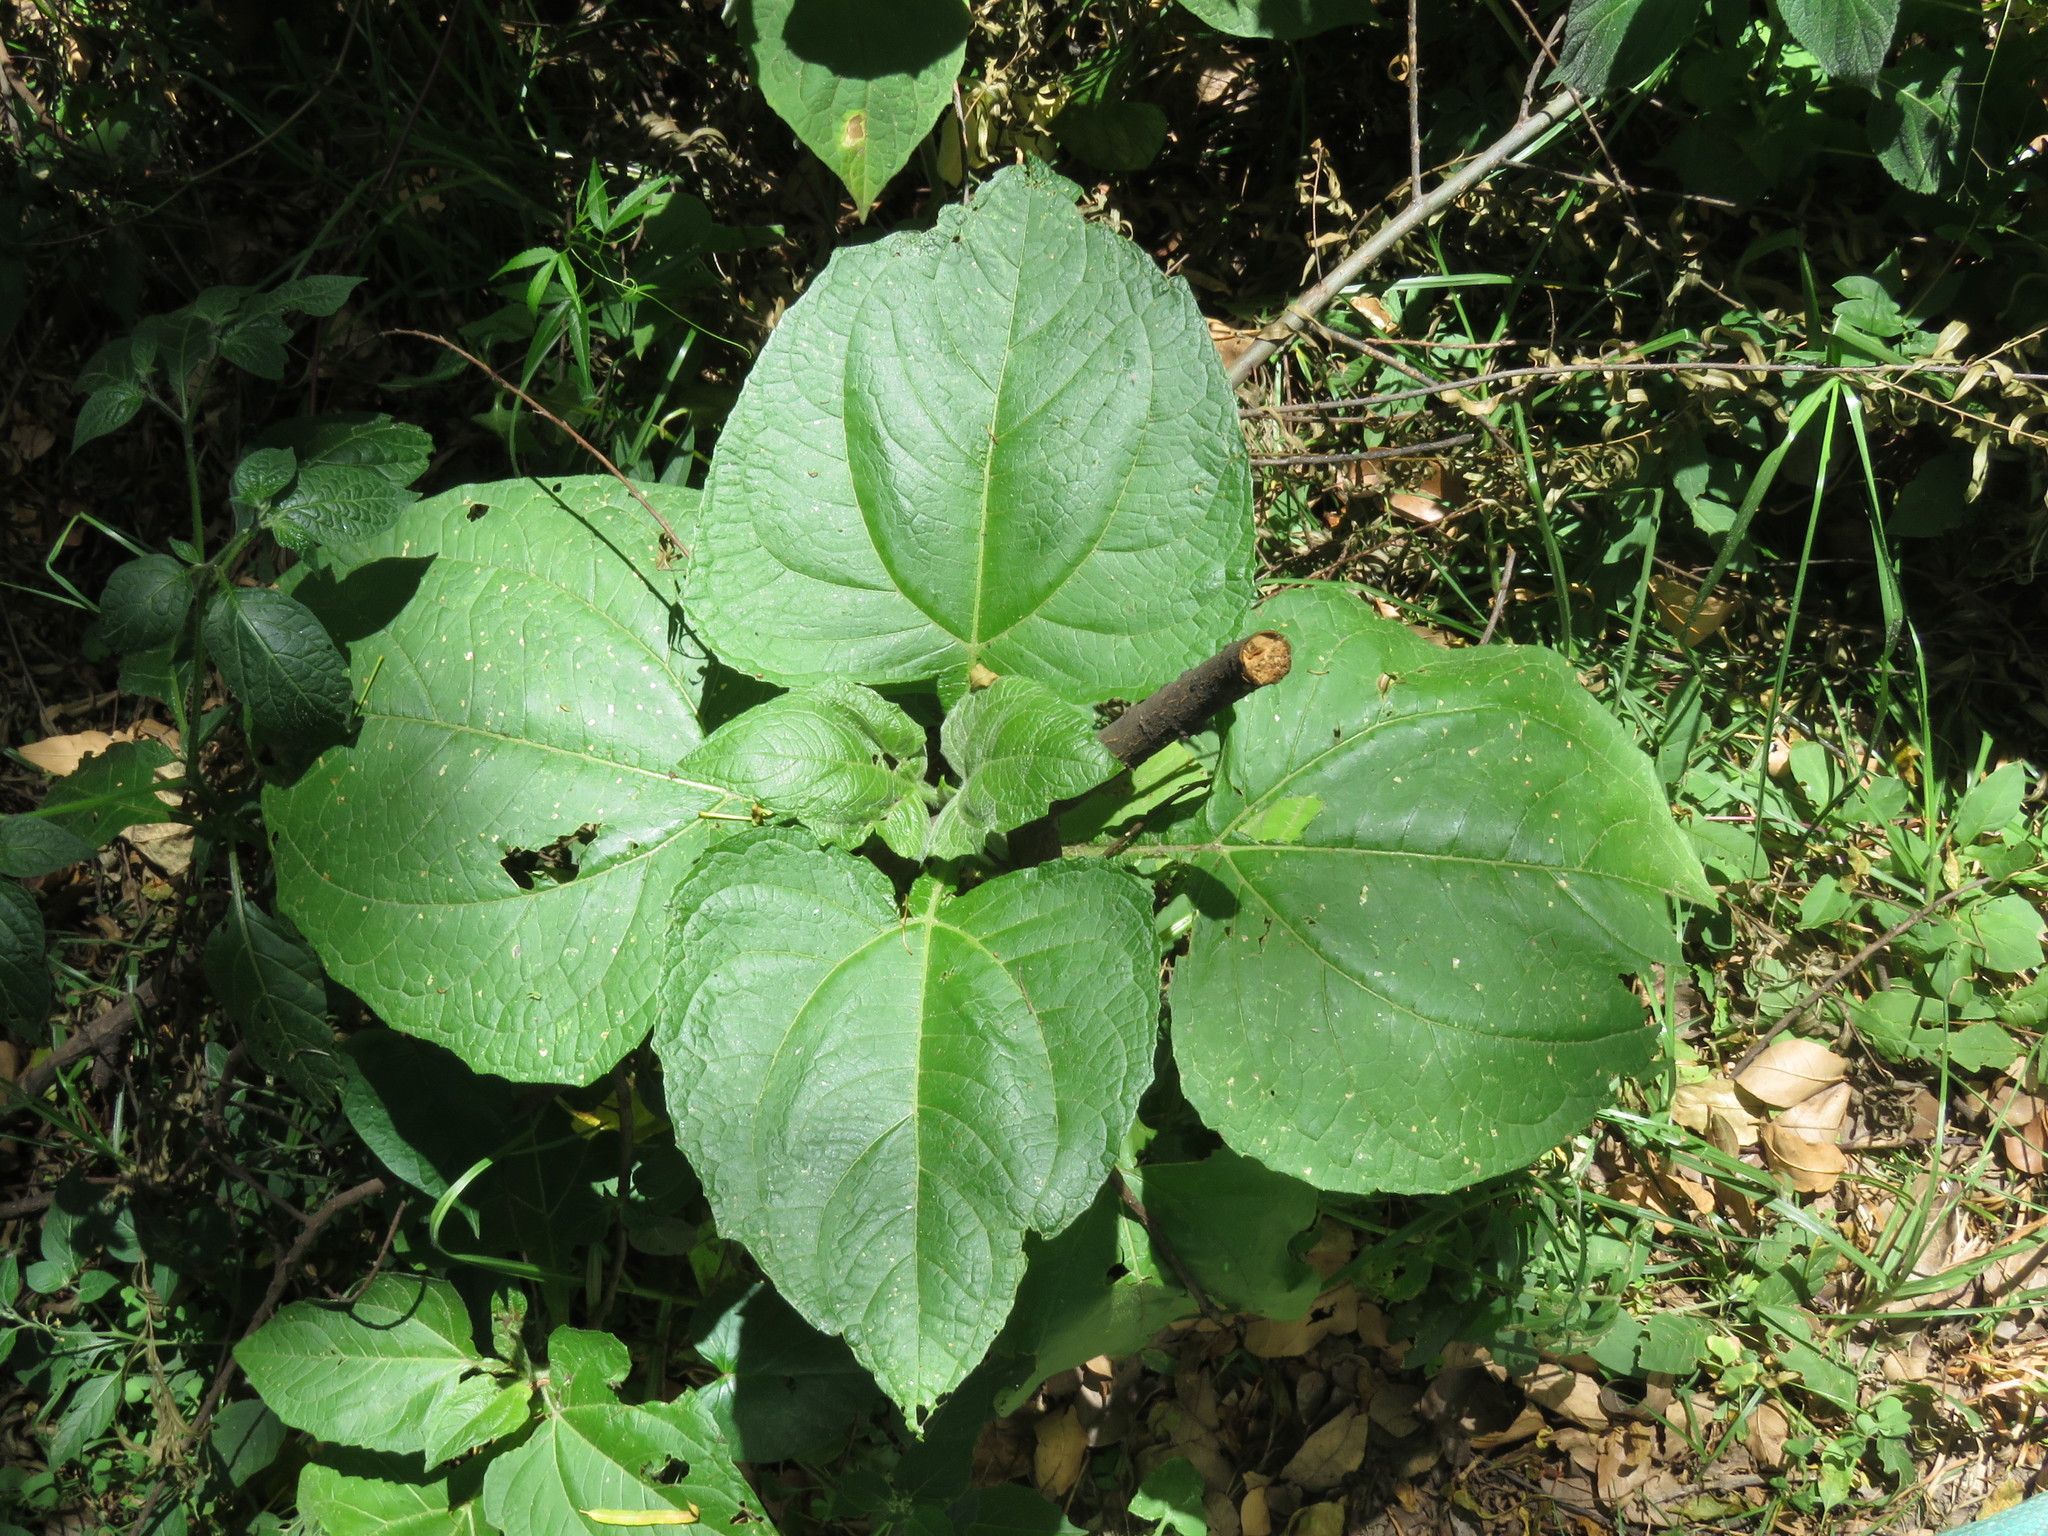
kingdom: Plantae
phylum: Tracheophyta
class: Magnoliopsida
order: Asterales
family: Asteraceae
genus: Smallanthus
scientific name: Smallanthus pyramidalis
